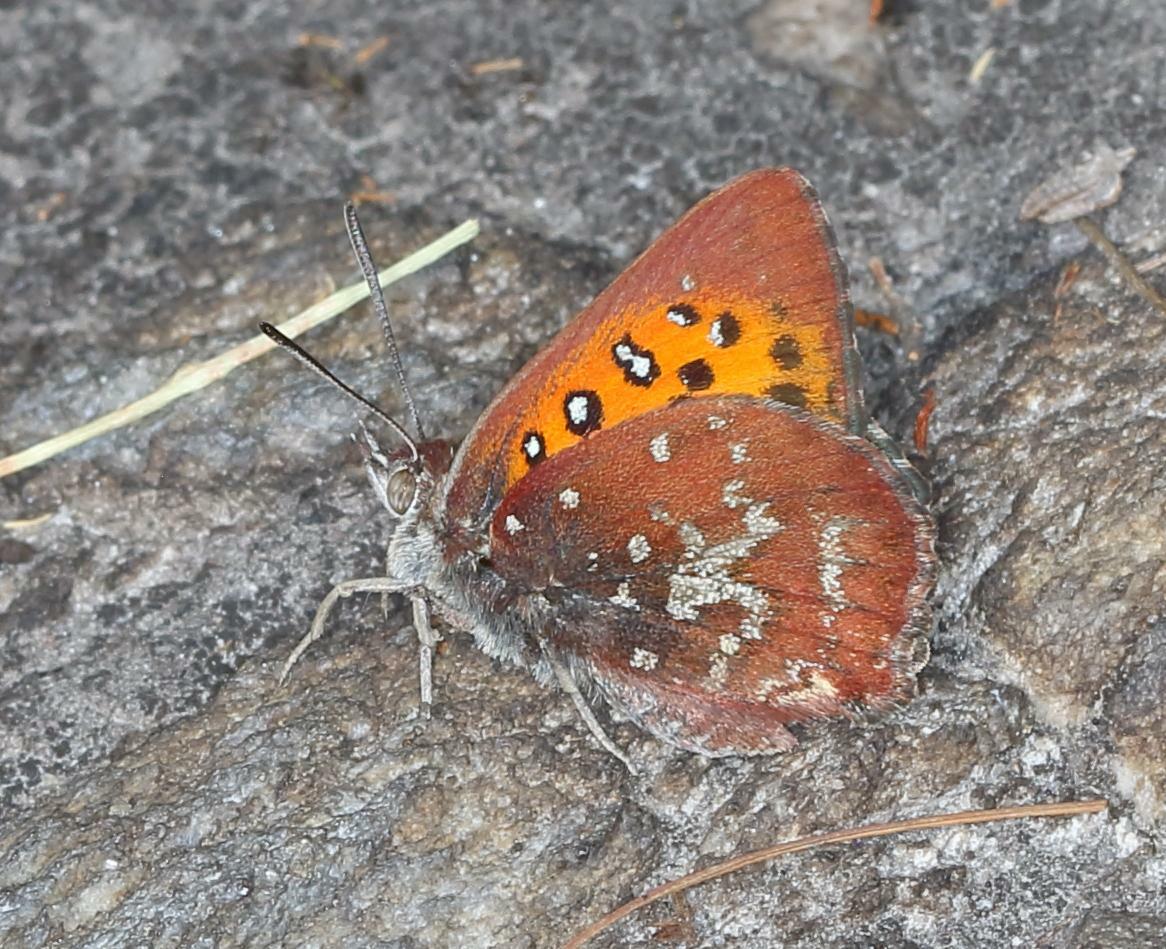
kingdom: Animalia
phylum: Arthropoda
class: Insecta
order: Lepidoptera
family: Lycaenidae
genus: Aloeides
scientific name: Aloeides thyra
